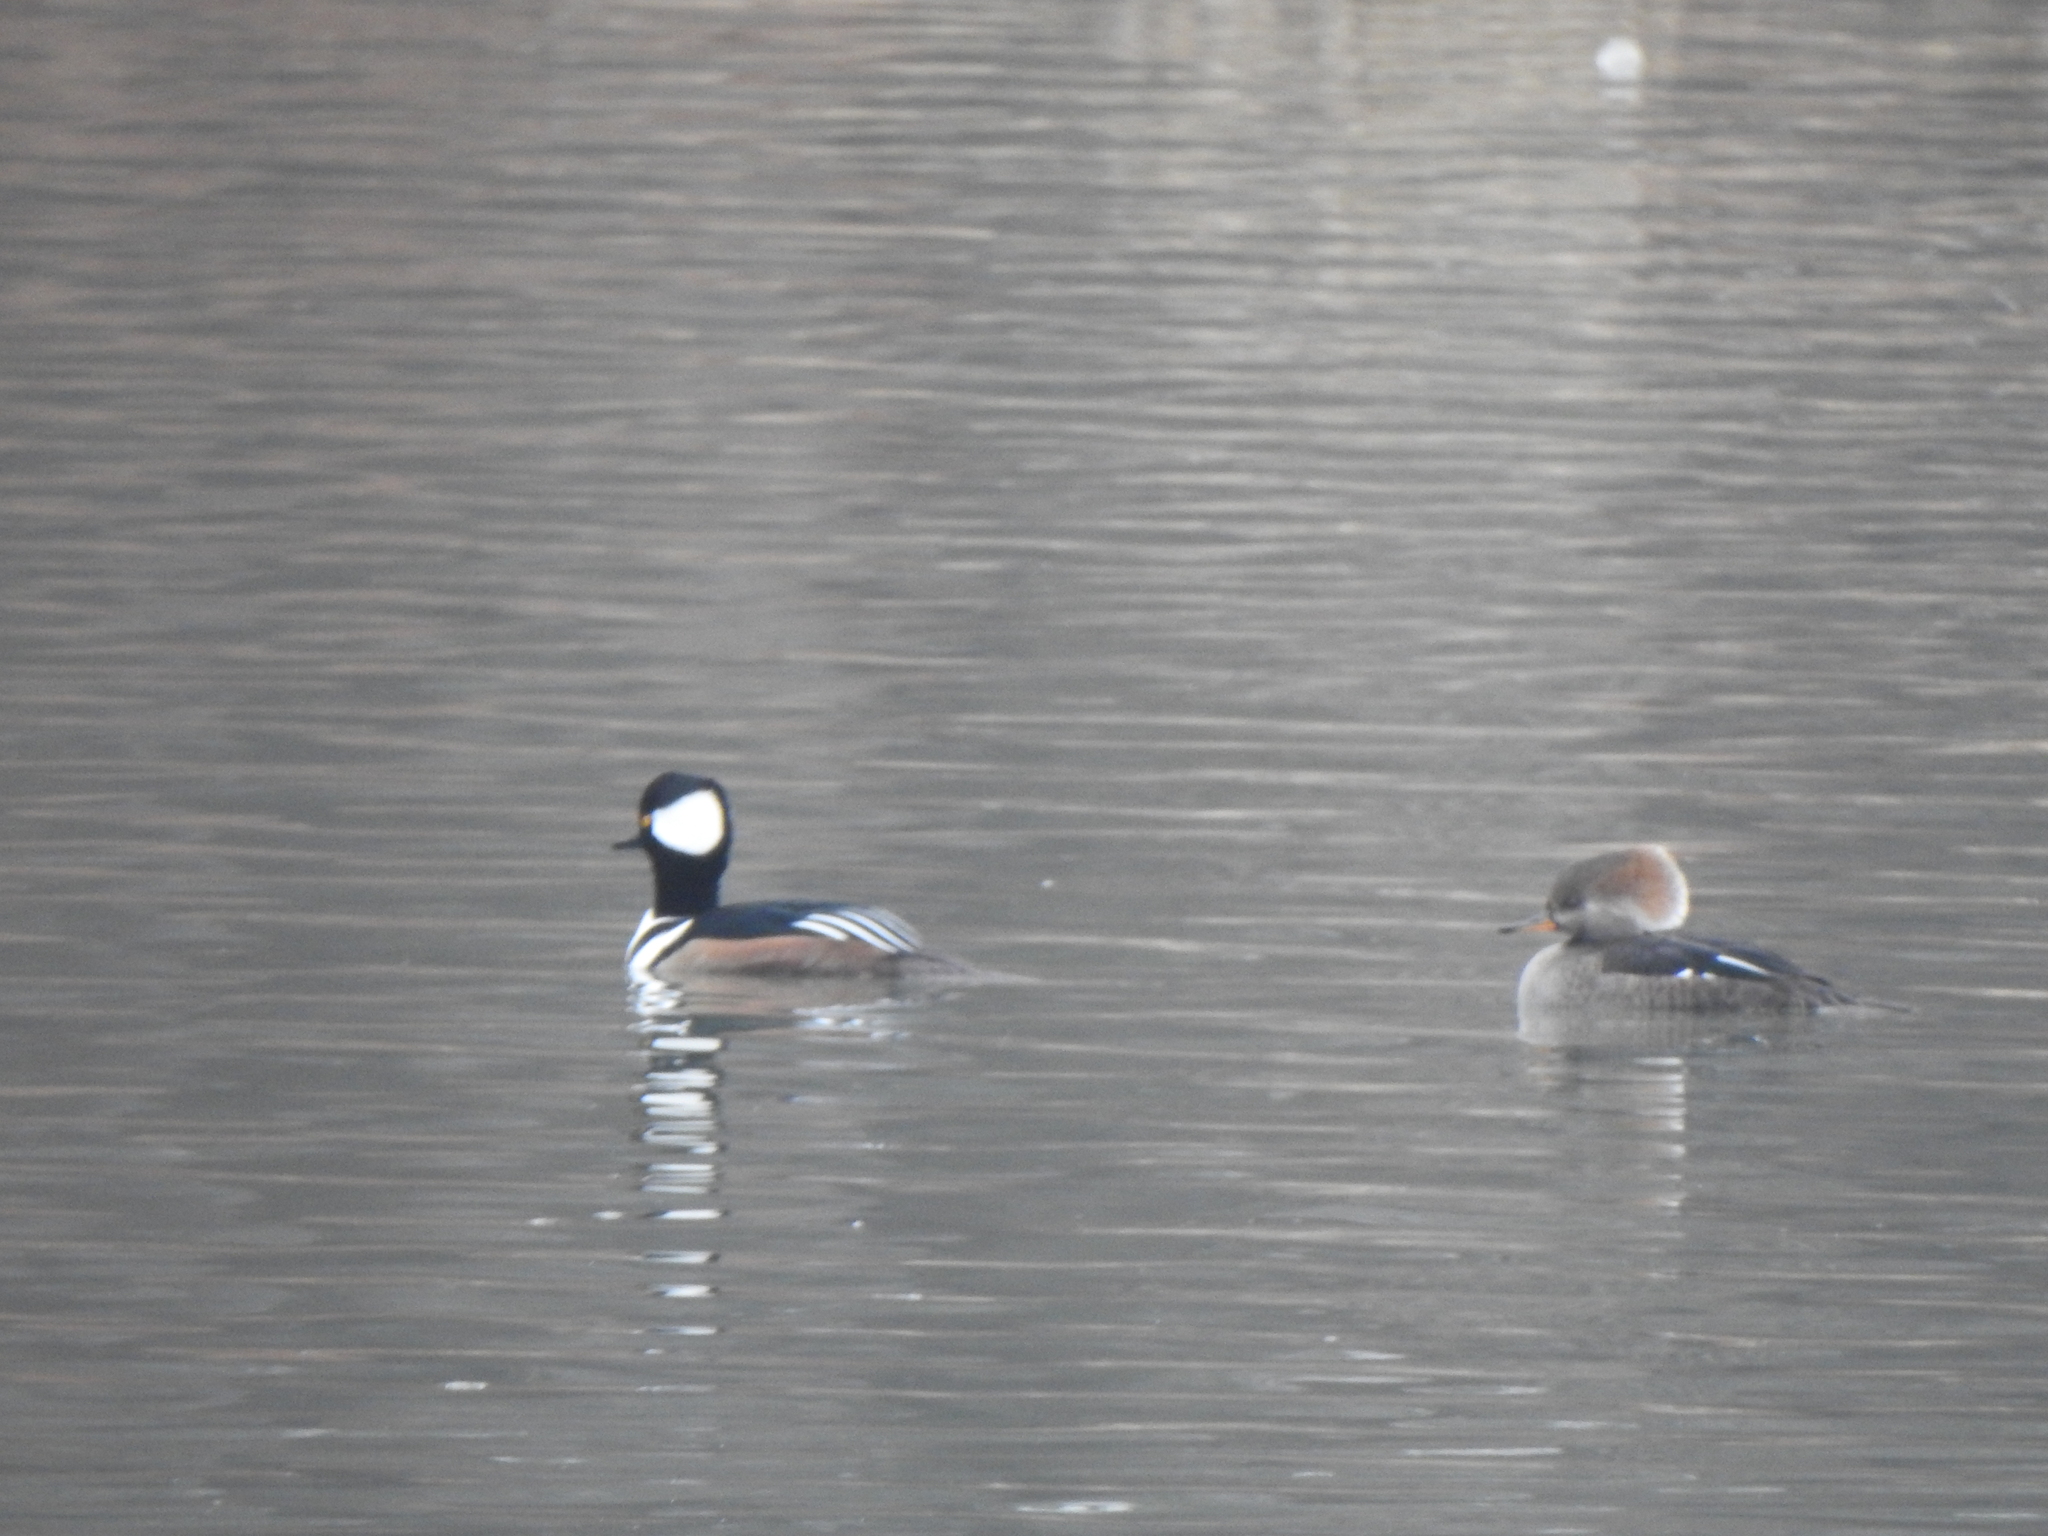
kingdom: Animalia
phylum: Chordata
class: Aves
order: Anseriformes
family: Anatidae
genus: Lophodytes
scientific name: Lophodytes cucullatus
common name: Hooded merganser
